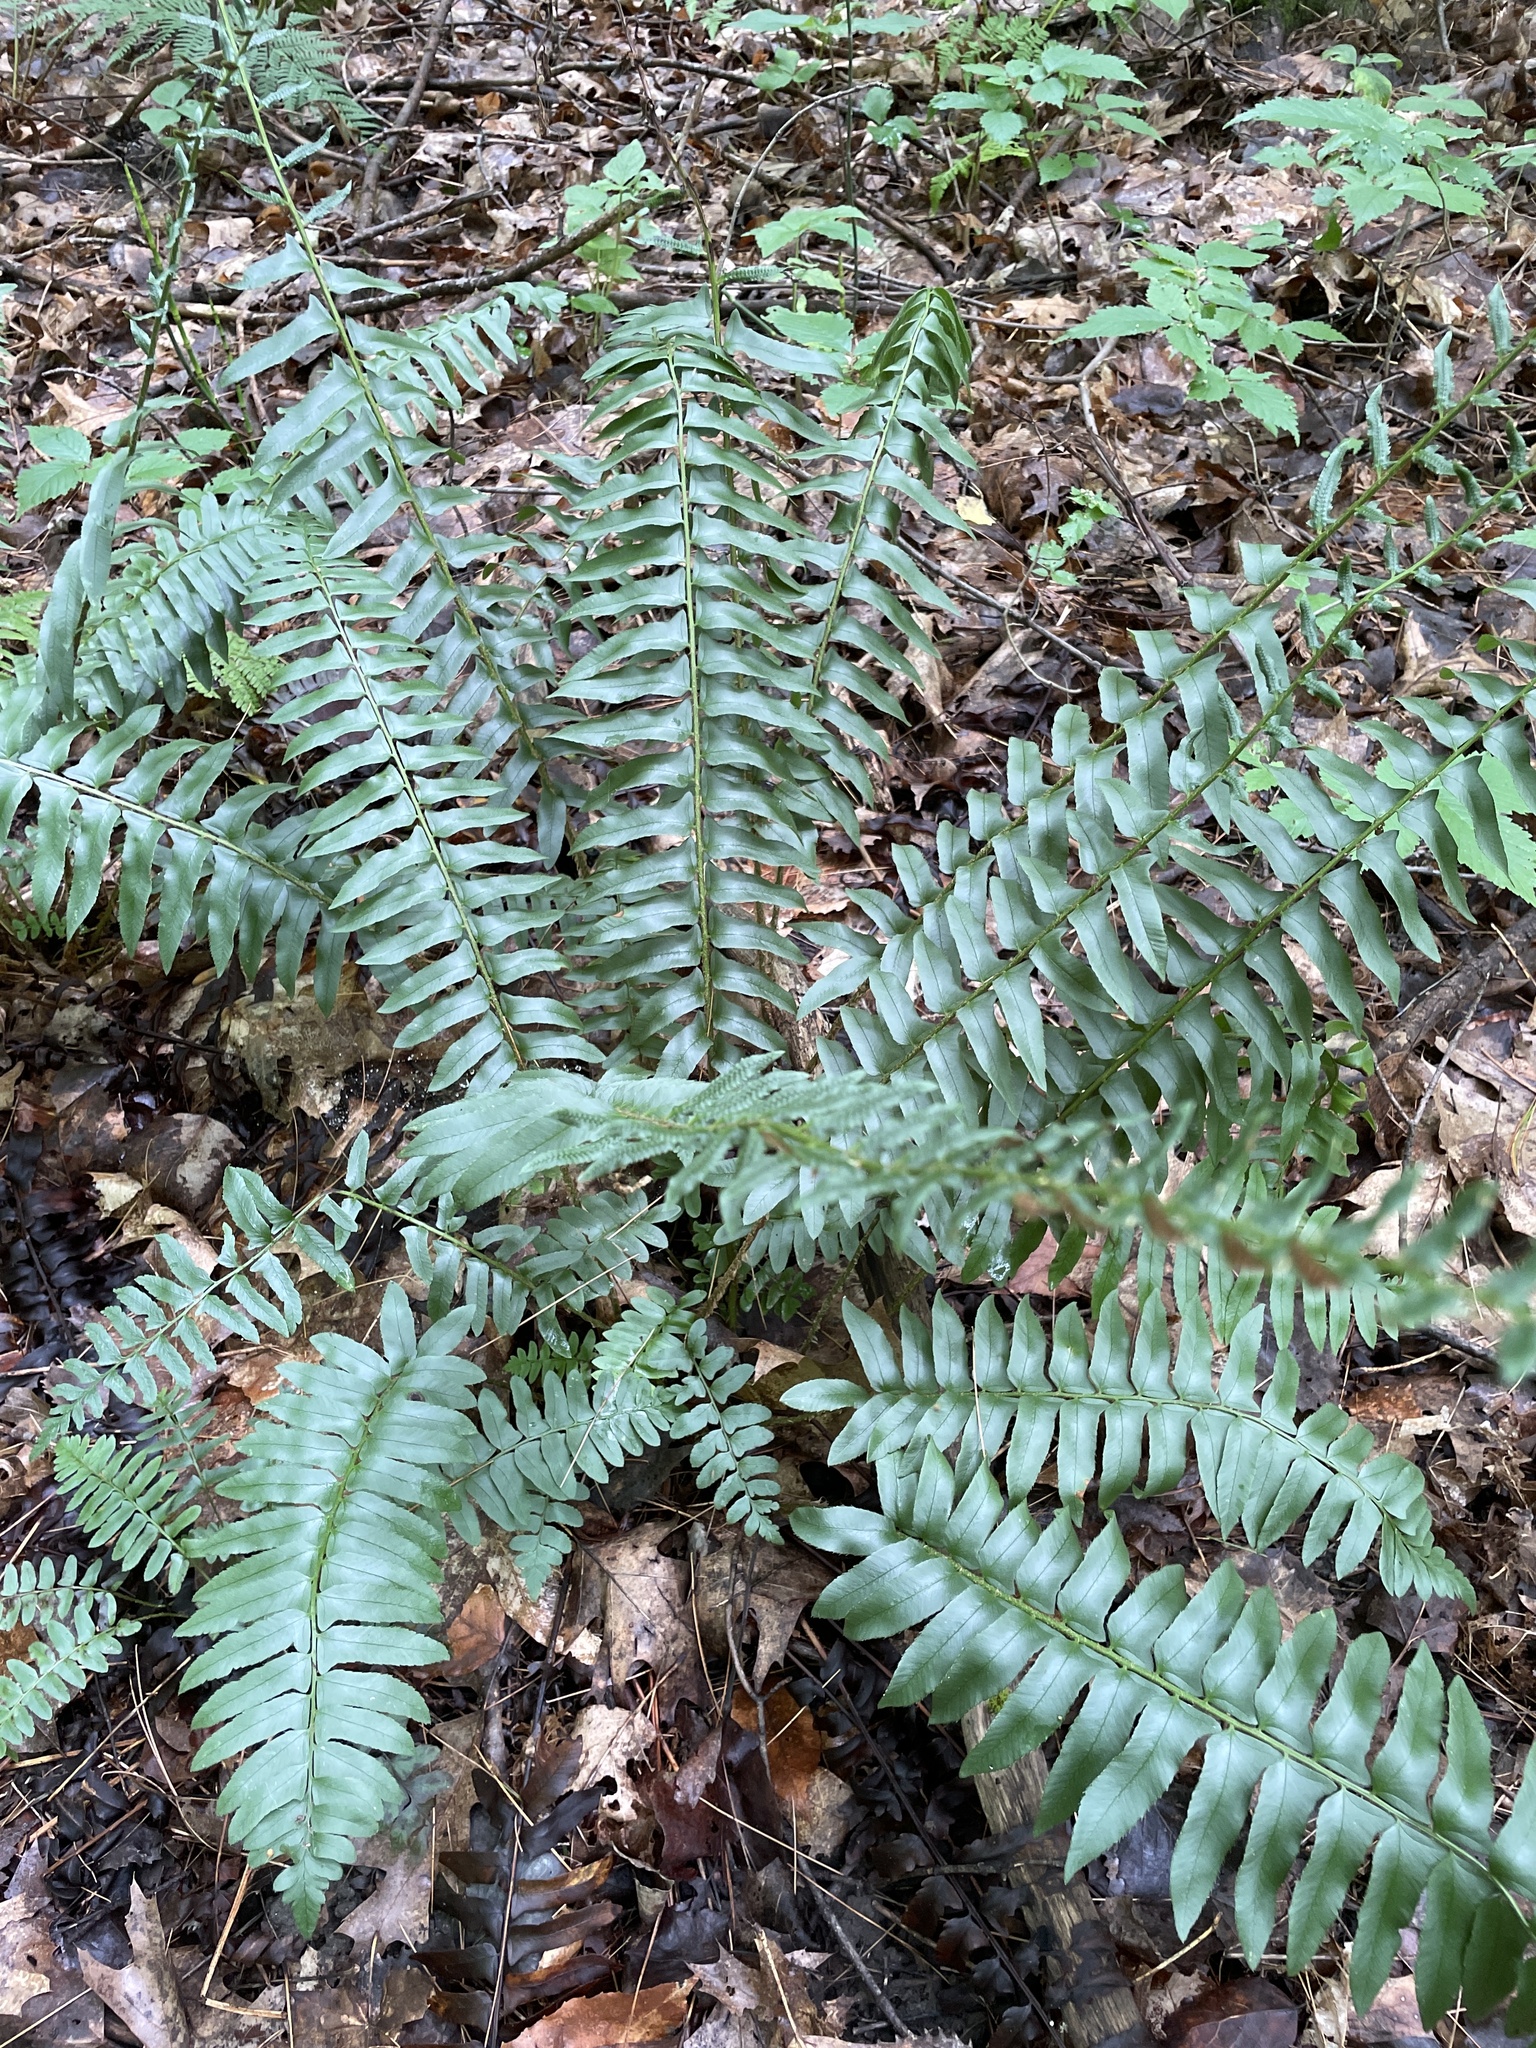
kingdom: Plantae
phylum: Tracheophyta
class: Polypodiopsida
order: Polypodiales
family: Dryopteridaceae
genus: Polystichum
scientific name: Polystichum acrostichoides
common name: Christmas fern
